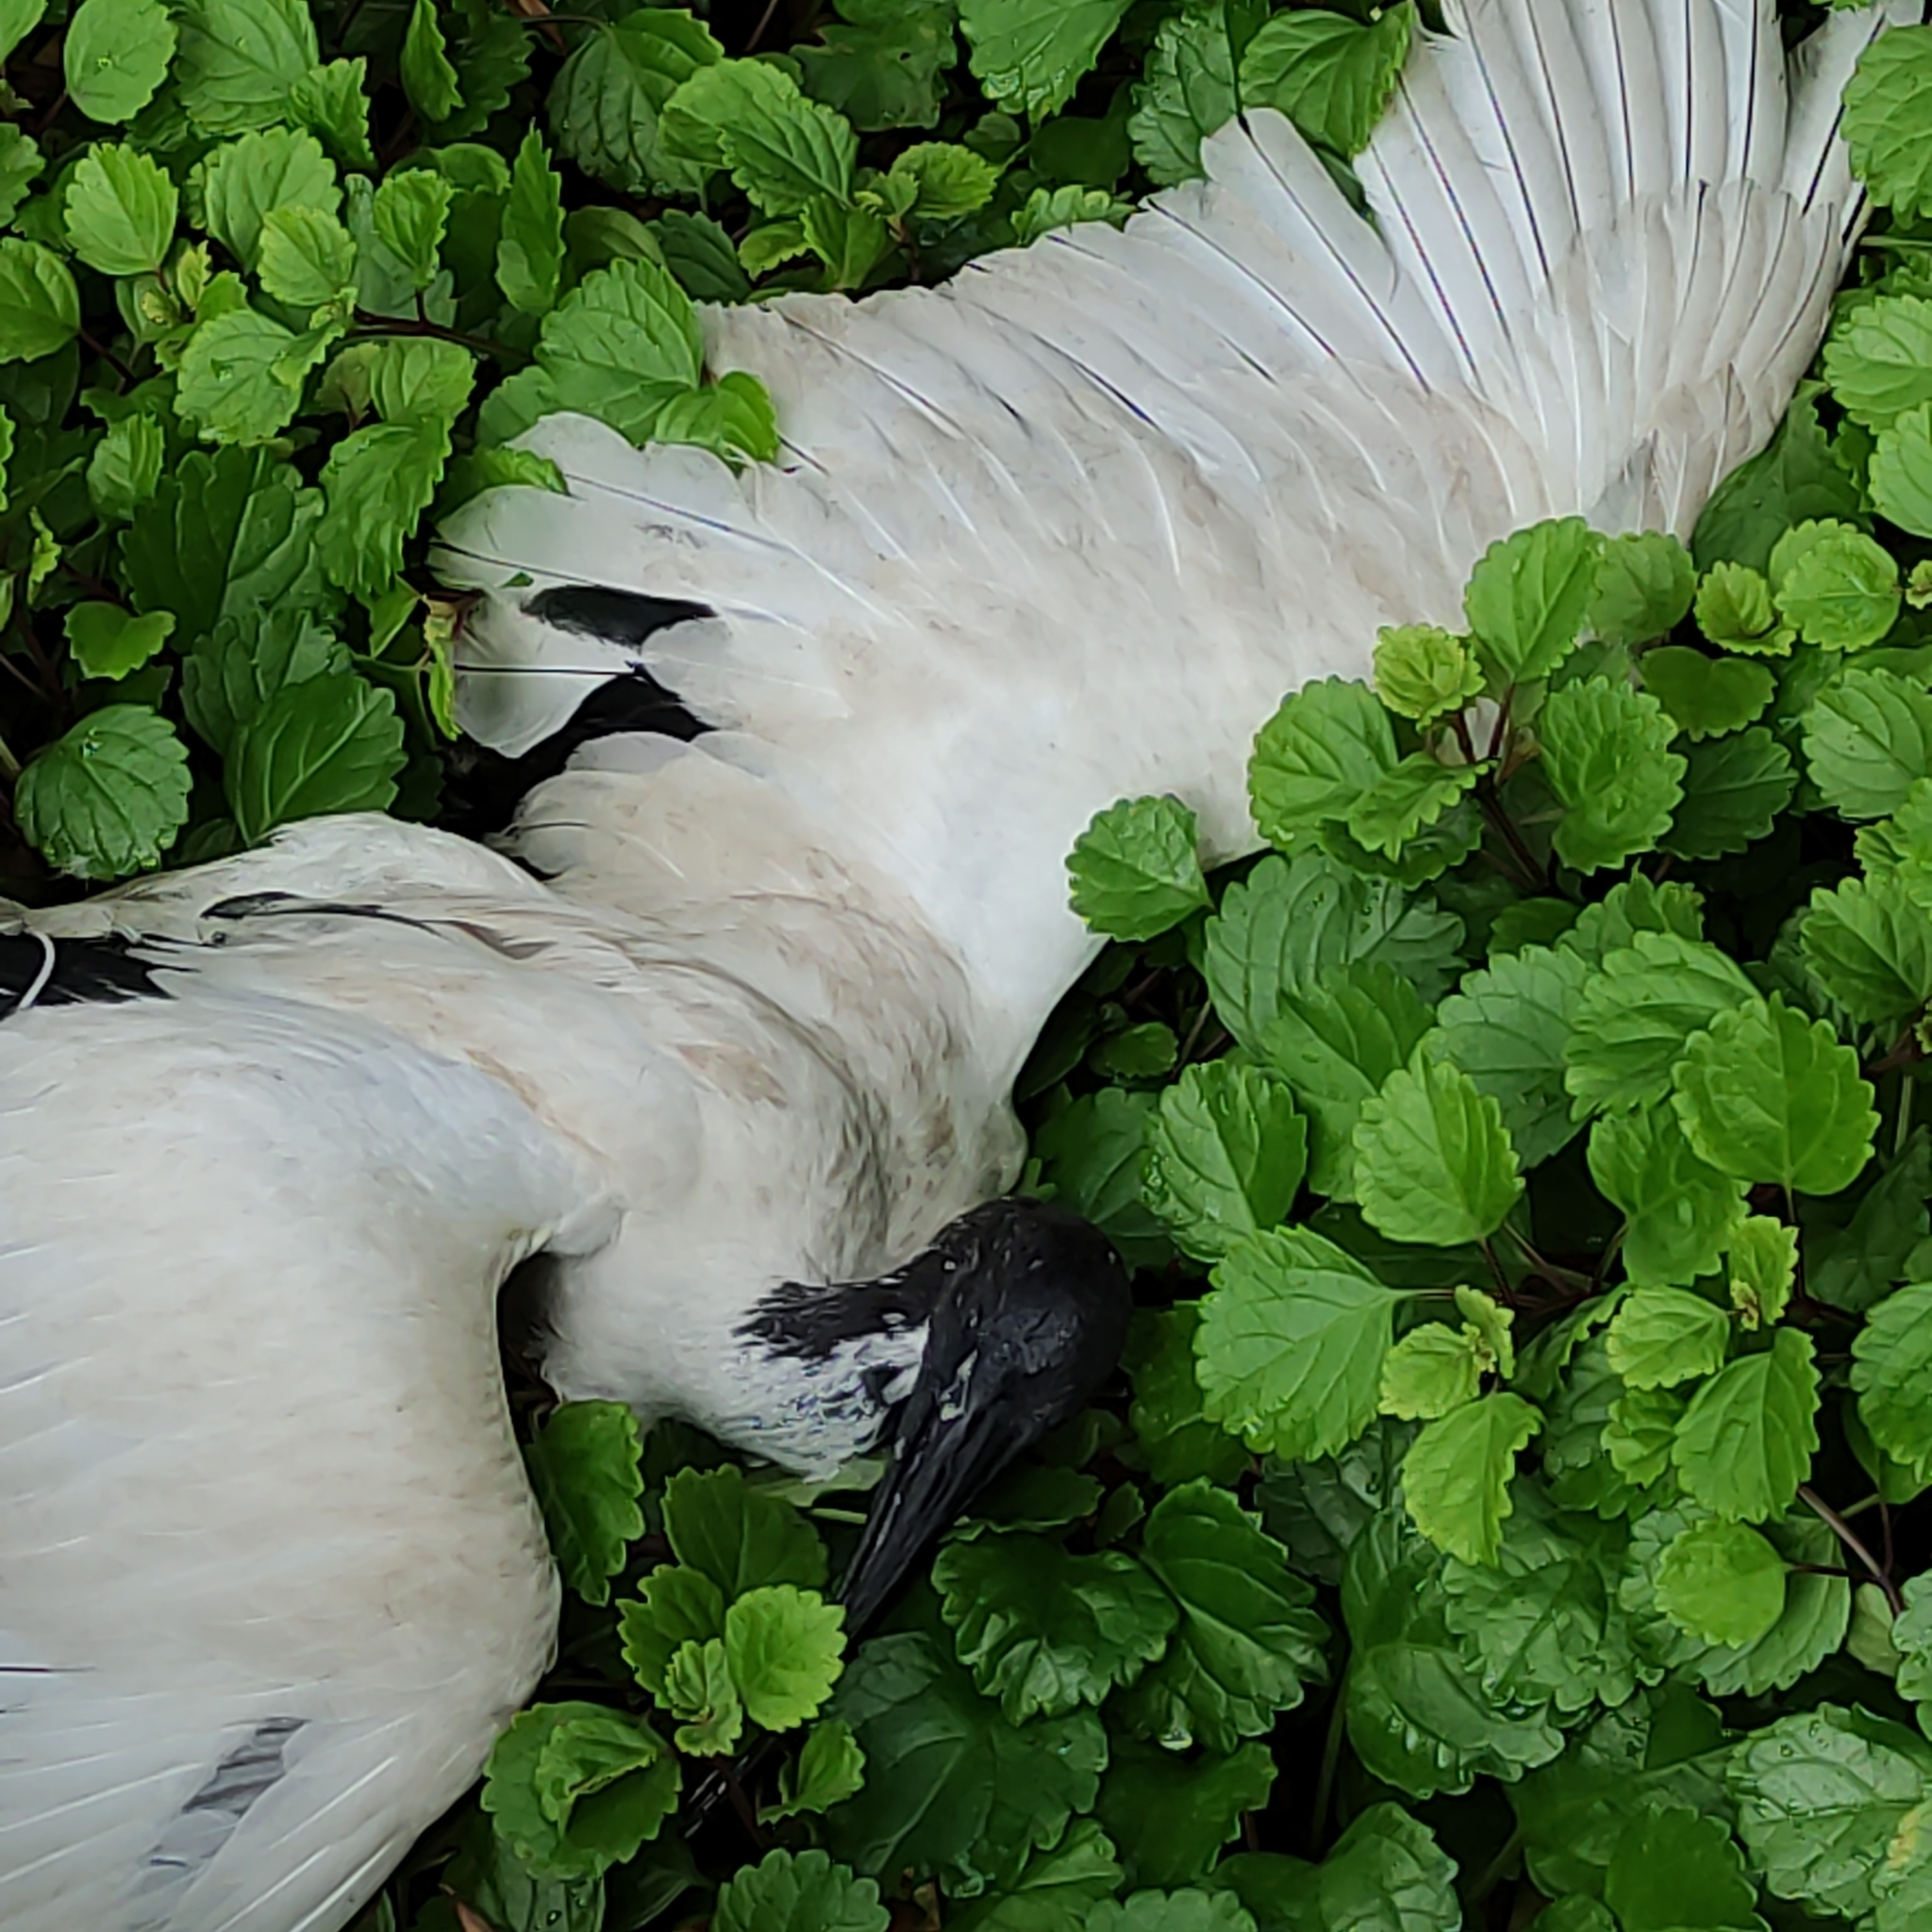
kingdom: Animalia
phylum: Chordata
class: Aves
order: Pelecaniformes
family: Threskiornithidae
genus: Threskiornis
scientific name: Threskiornis molucca
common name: Australian white ibis
